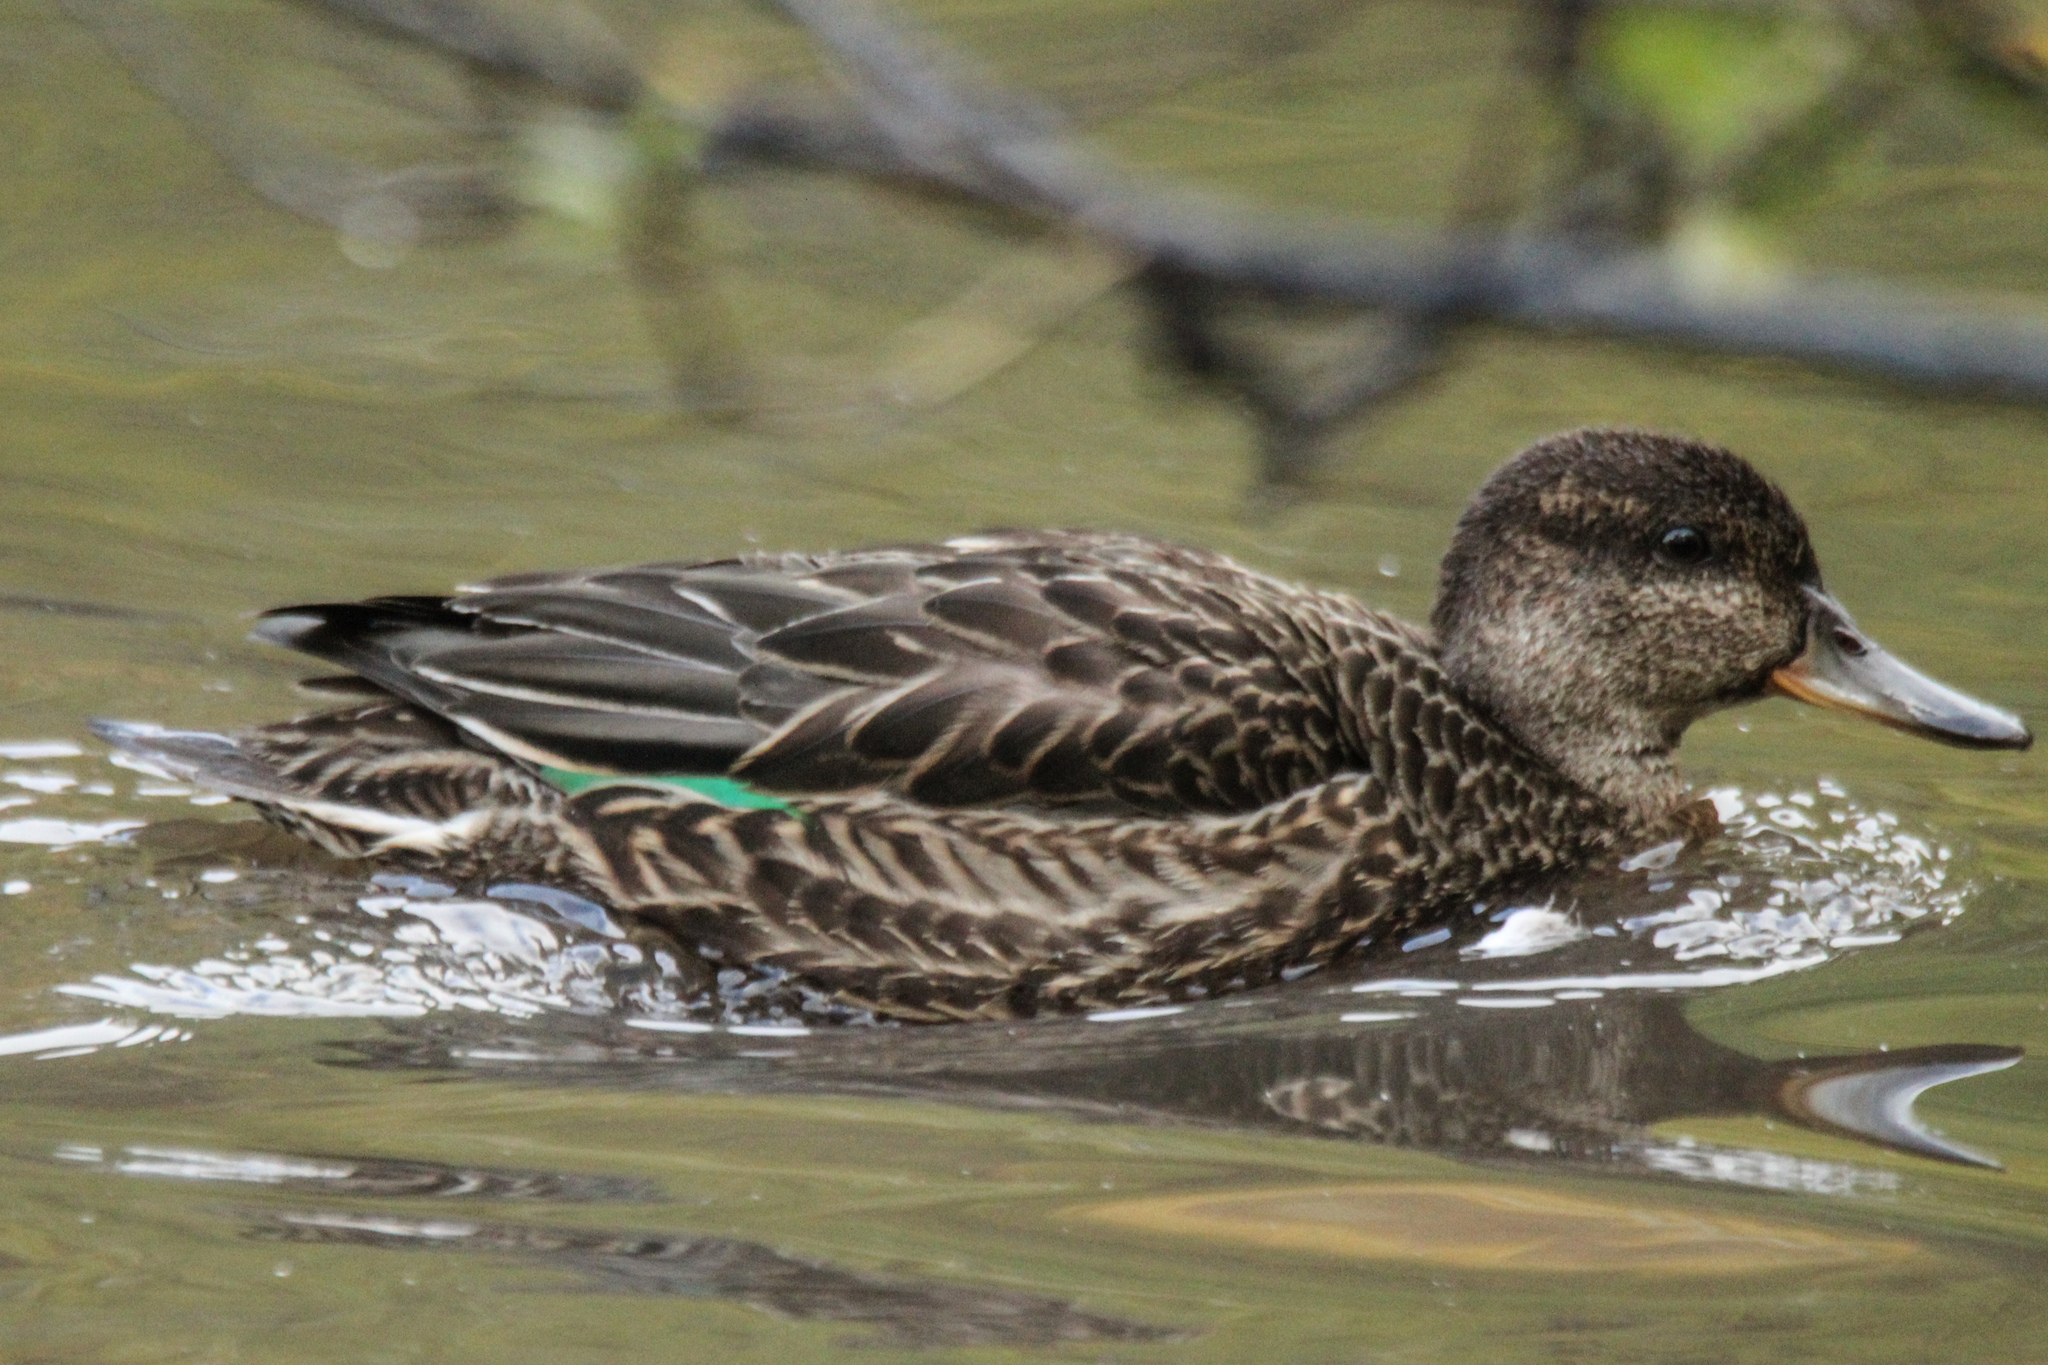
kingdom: Animalia
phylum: Chordata
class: Aves
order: Anseriformes
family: Anatidae
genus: Anas
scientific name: Anas crecca
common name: Eurasian teal
